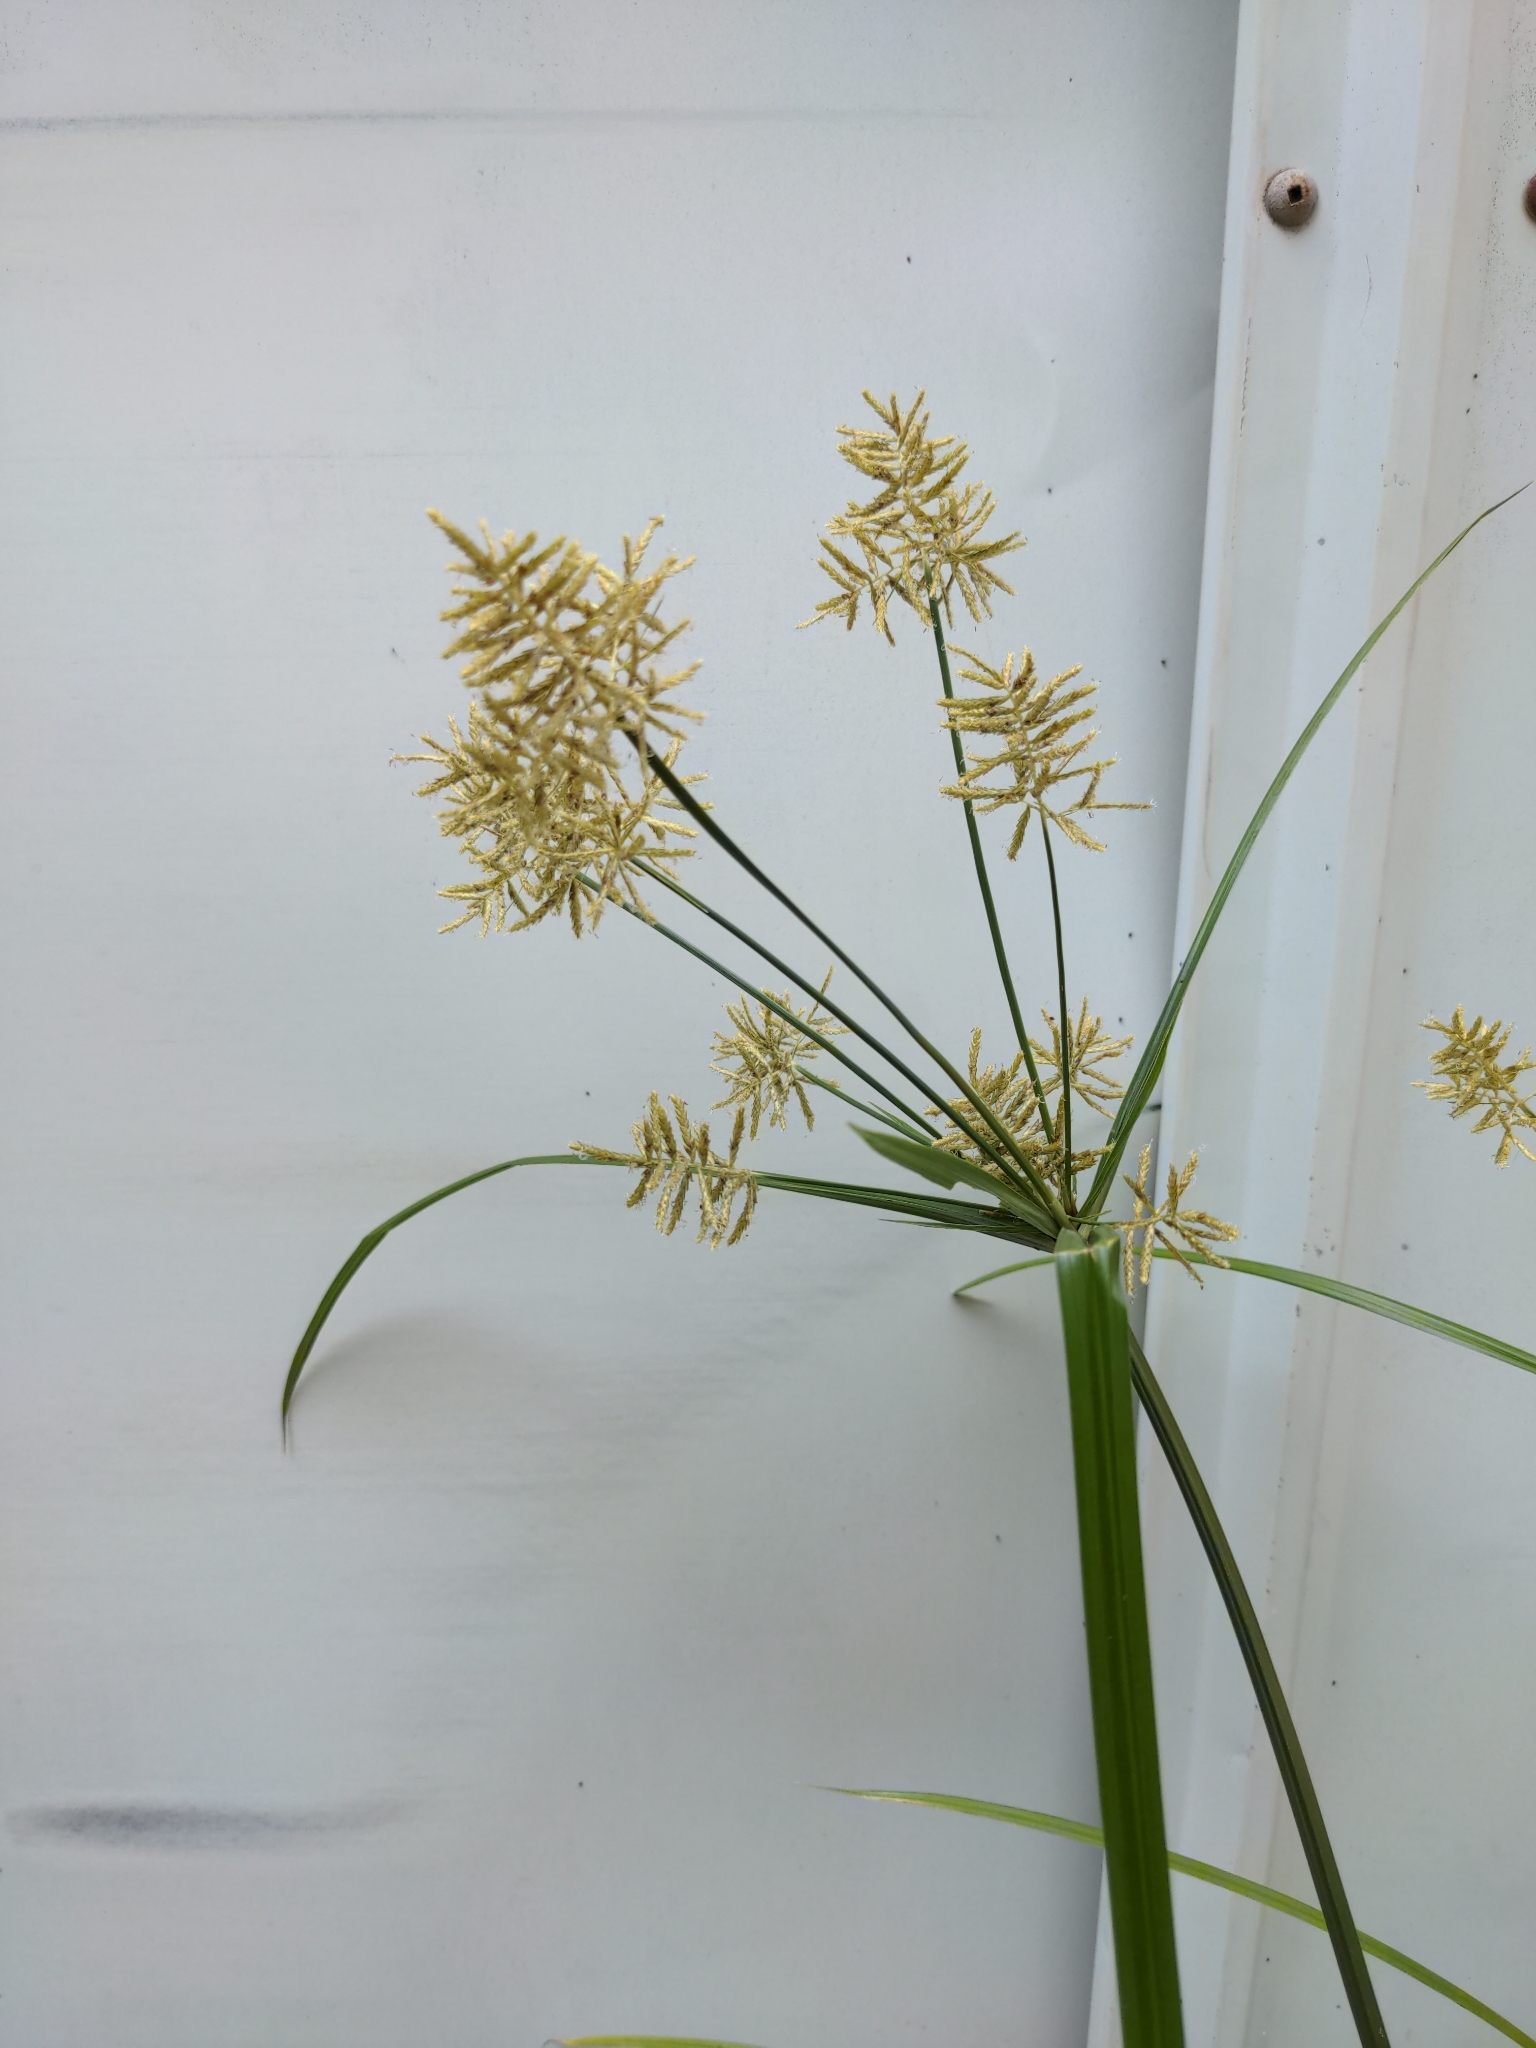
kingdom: Plantae
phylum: Tracheophyta
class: Liliopsida
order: Poales
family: Cyperaceae
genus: Cyperus
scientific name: Cyperus esculentus
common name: Yellow nutsedge
